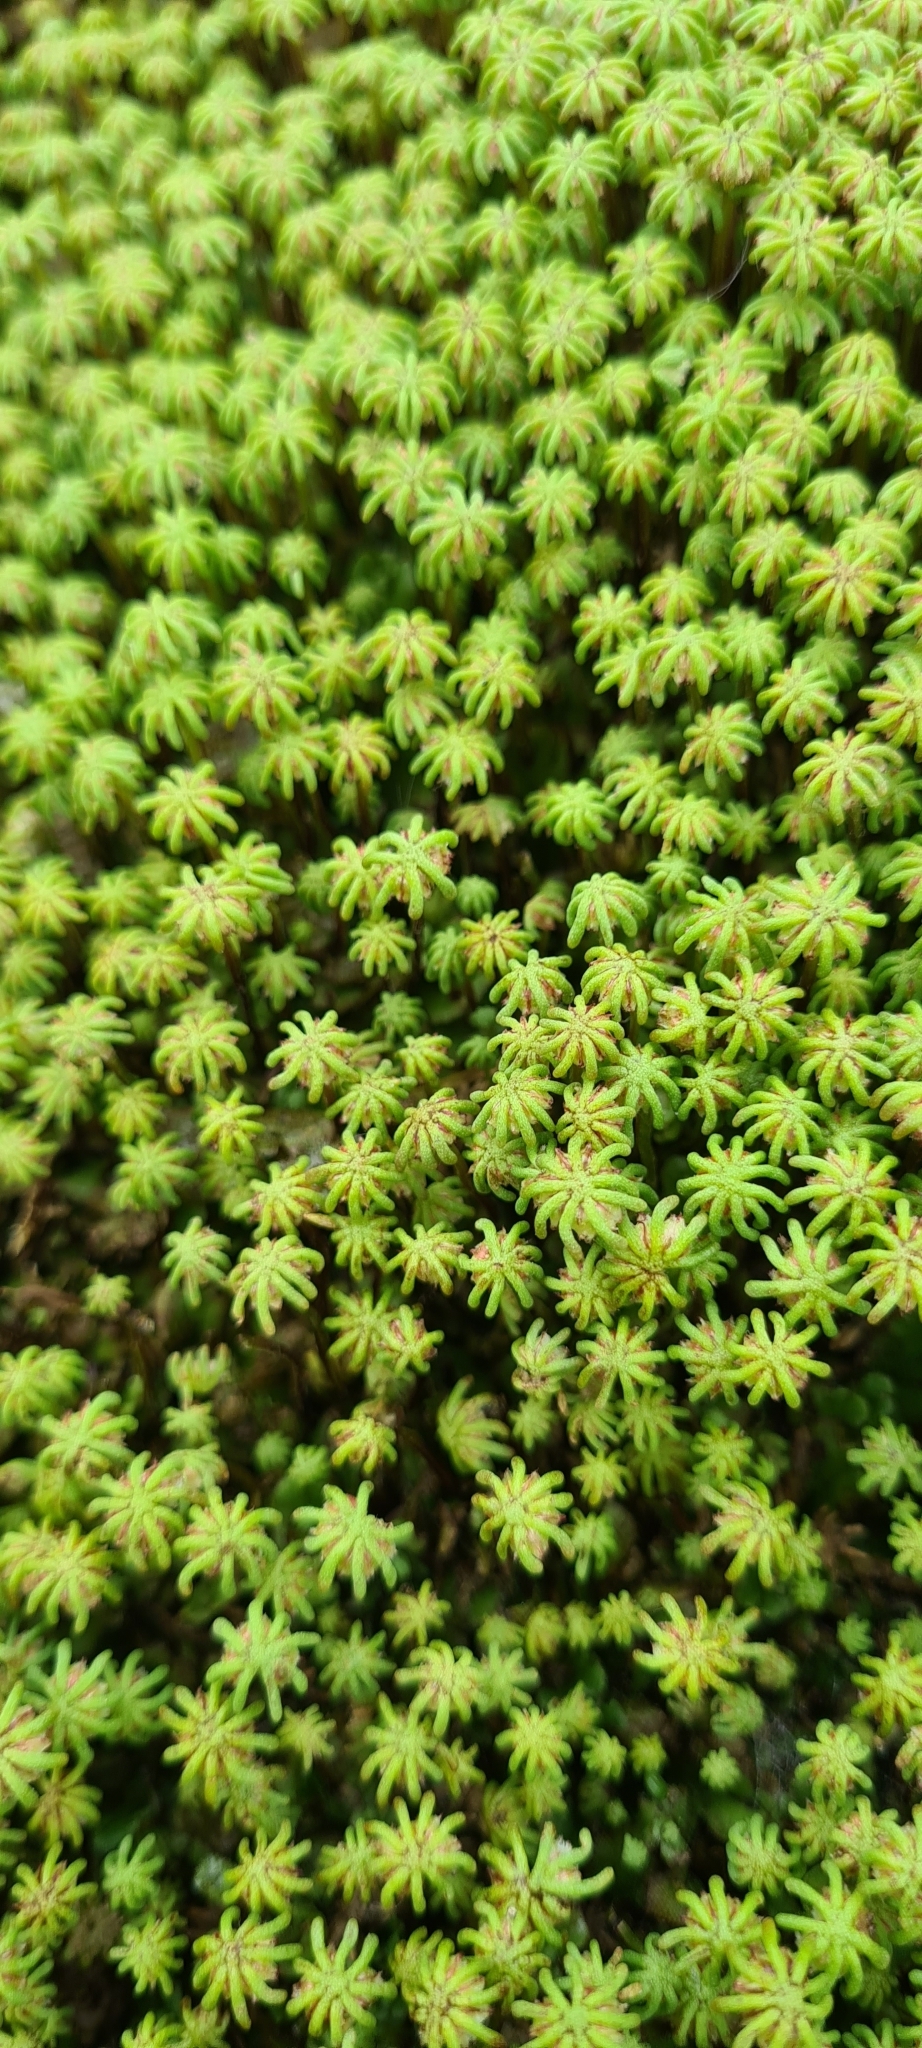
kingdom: Plantae
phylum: Marchantiophyta
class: Marchantiopsida
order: Marchantiales
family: Marchantiaceae
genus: Marchantia
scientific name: Marchantia polymorpha
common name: Common liverwort
